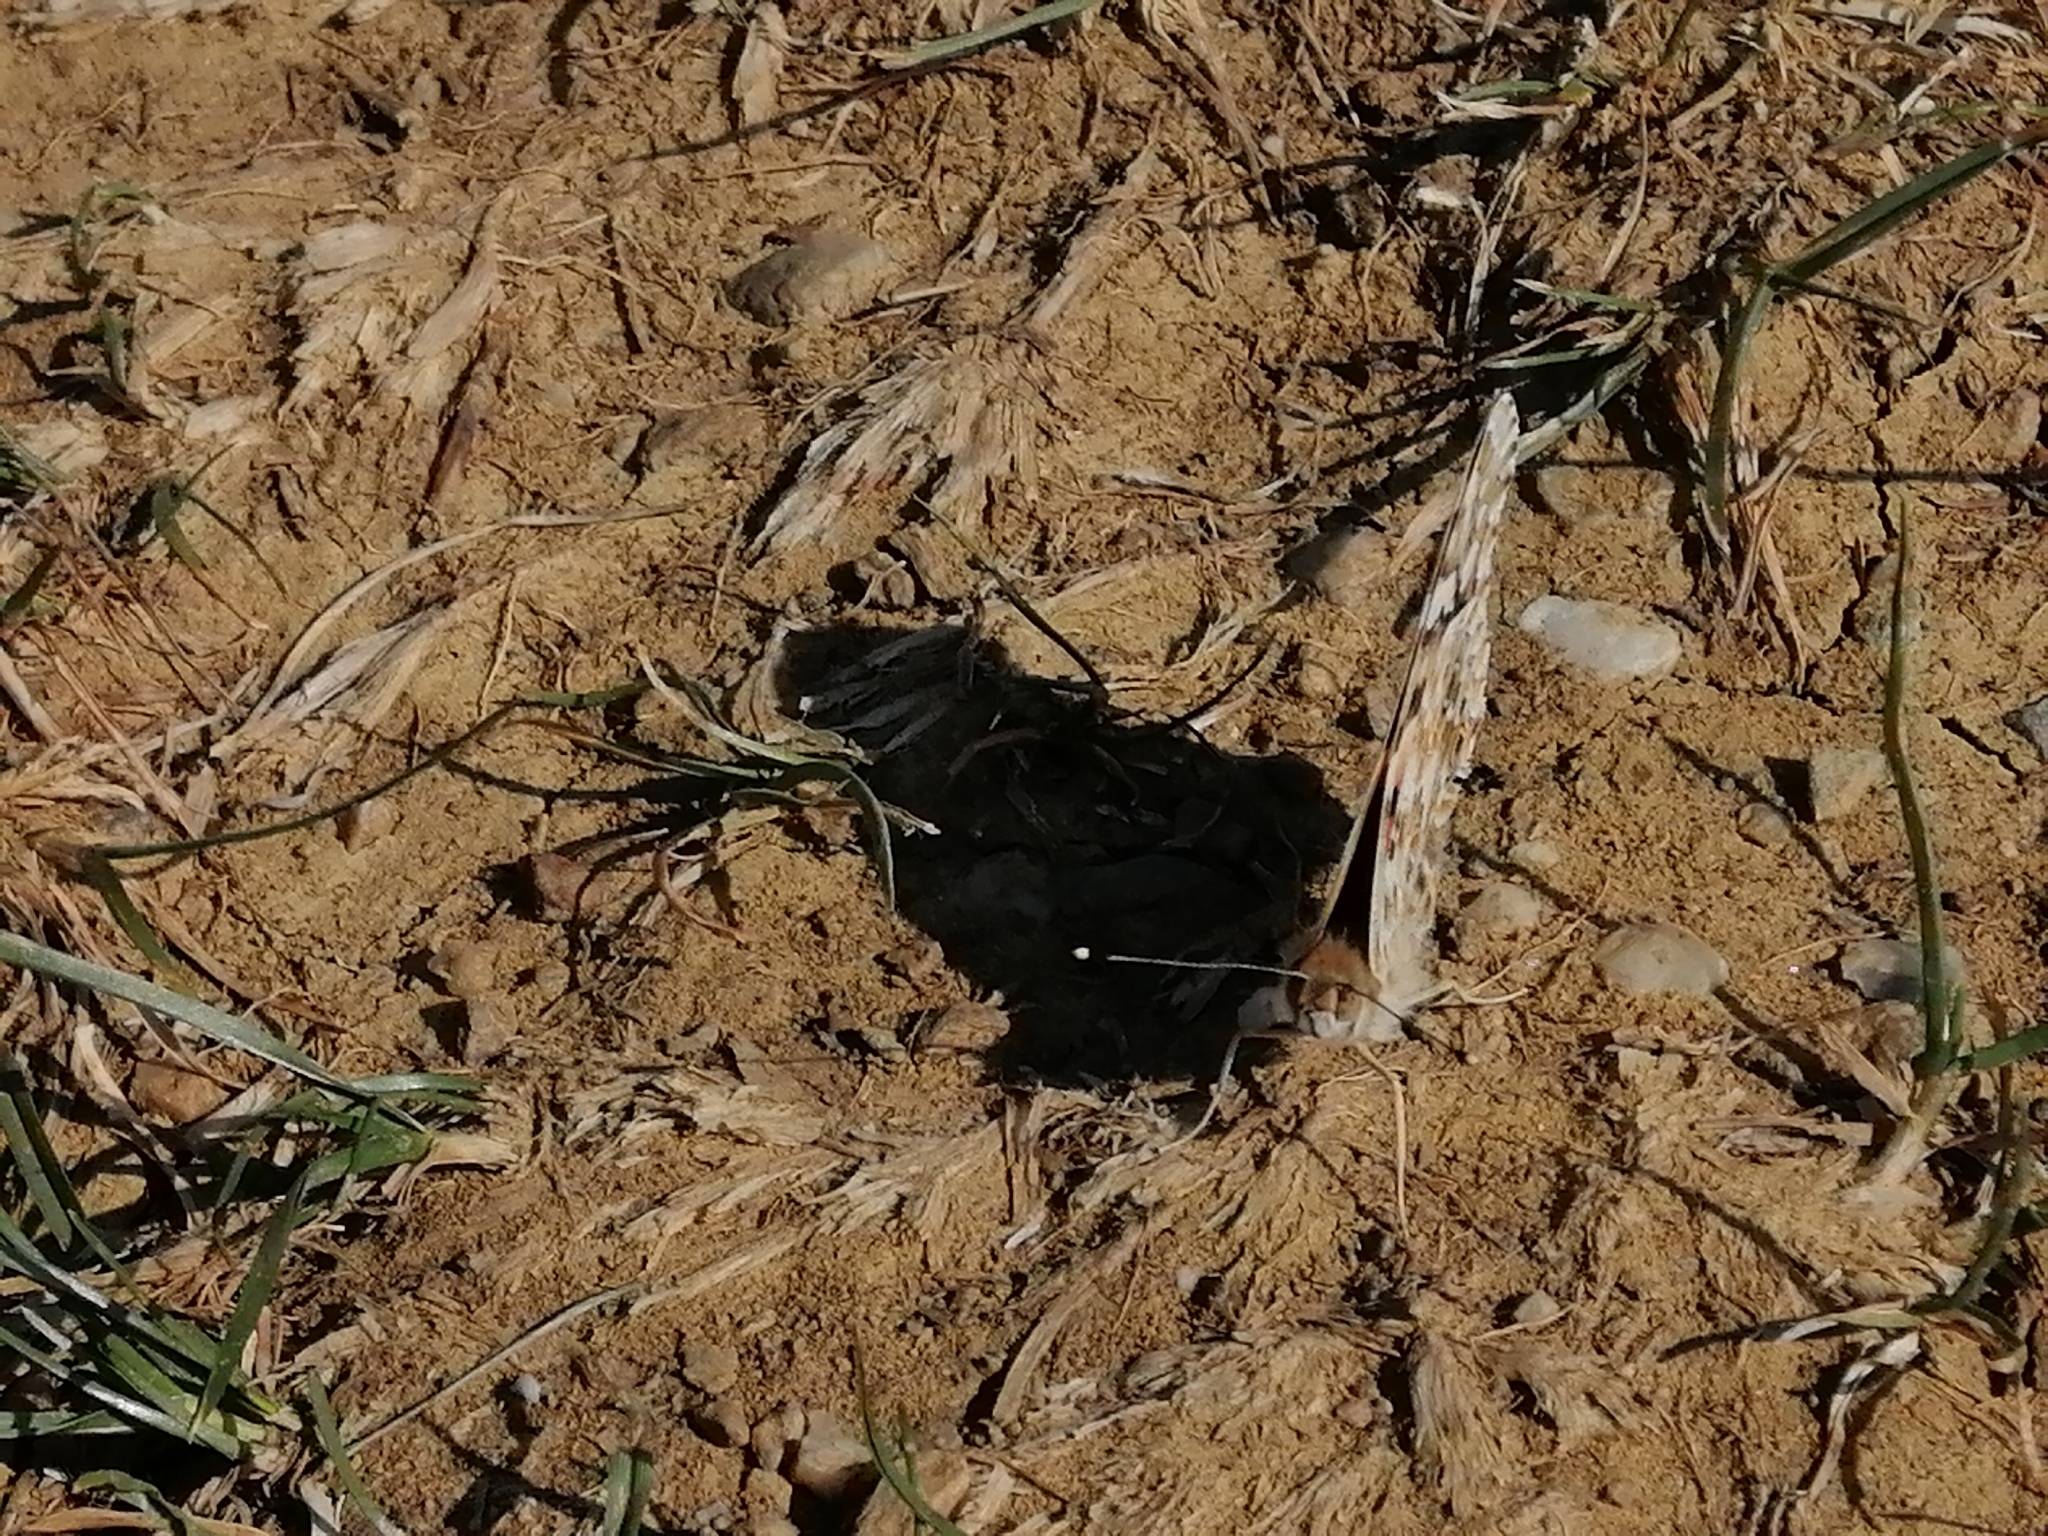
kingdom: Animalia
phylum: Arthropoda
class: Insecta
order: Lepidoptera
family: Nymphalidae
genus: Vanessa
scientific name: Vanessa cardui
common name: Painted lady
